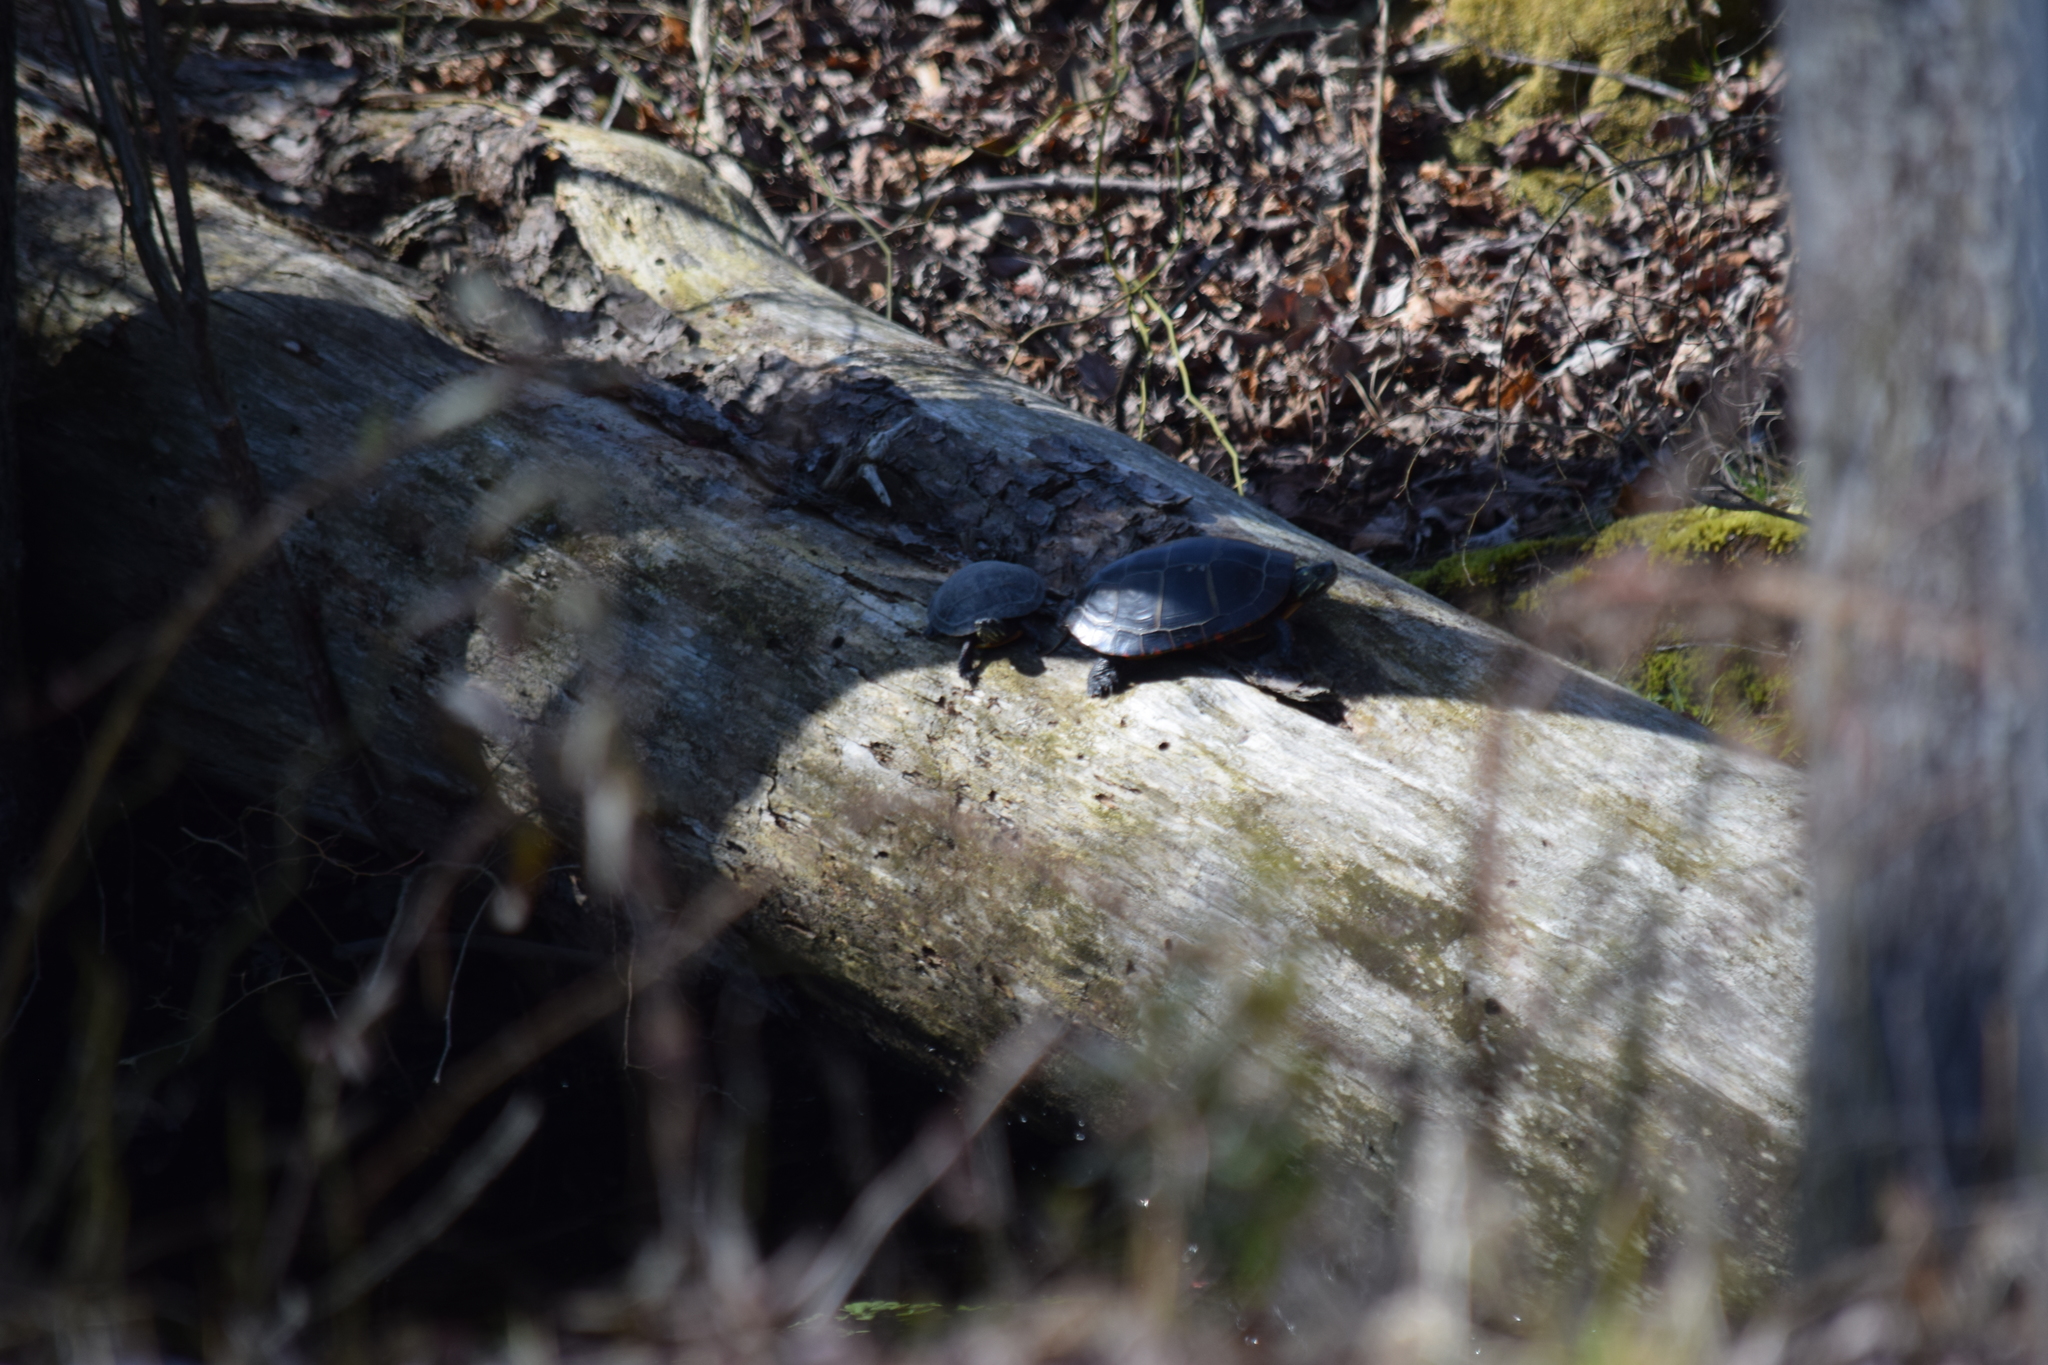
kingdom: Animalia
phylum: Chordata
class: Testudines
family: Emydidae
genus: Chrysemys
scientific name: Chrysemys picta
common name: Painted turtle
